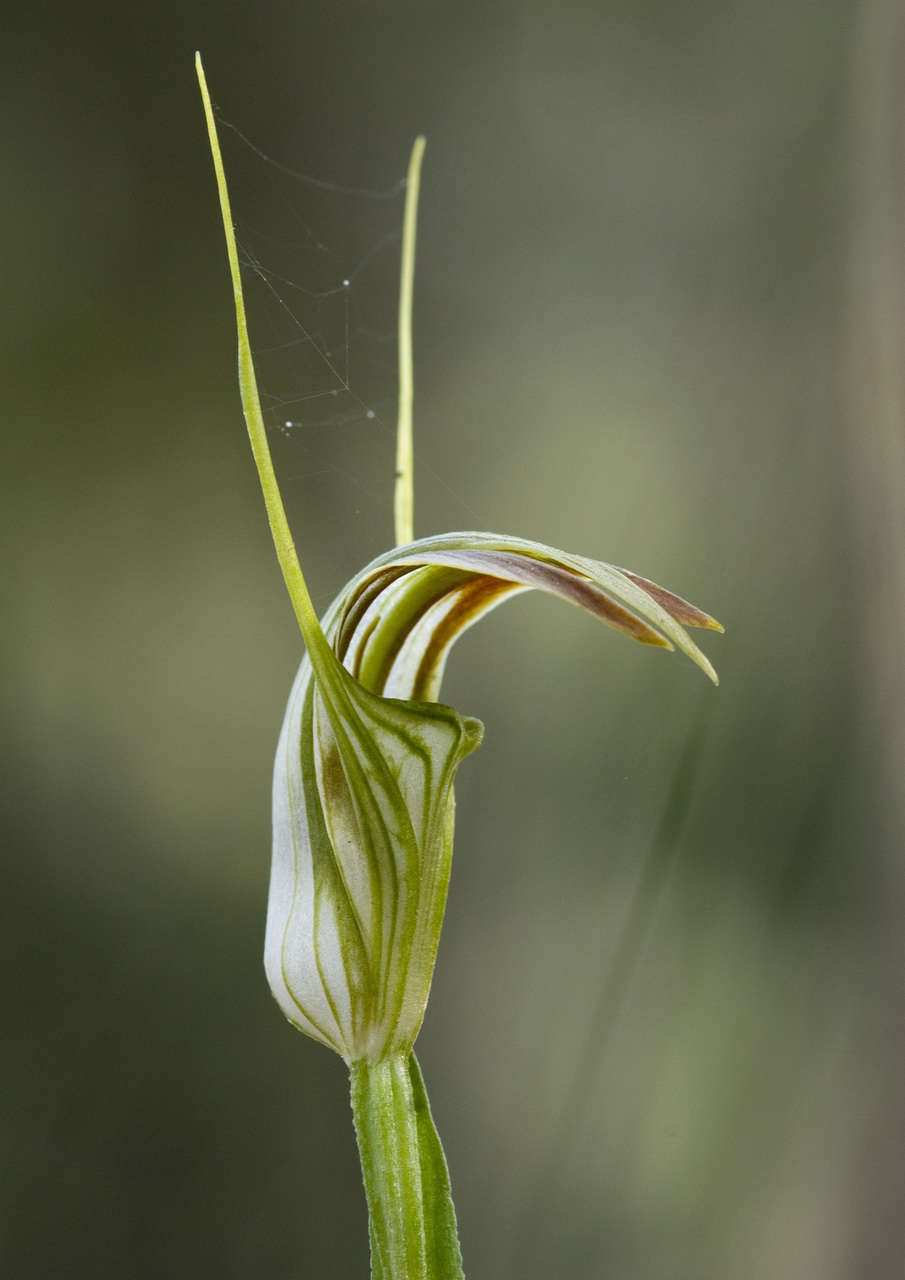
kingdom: Plantae
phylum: Tracheophyta
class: Liliopsida
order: Asparagales
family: Orchidaceae
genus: Pterostylis
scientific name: Pterostylis grandiflora
